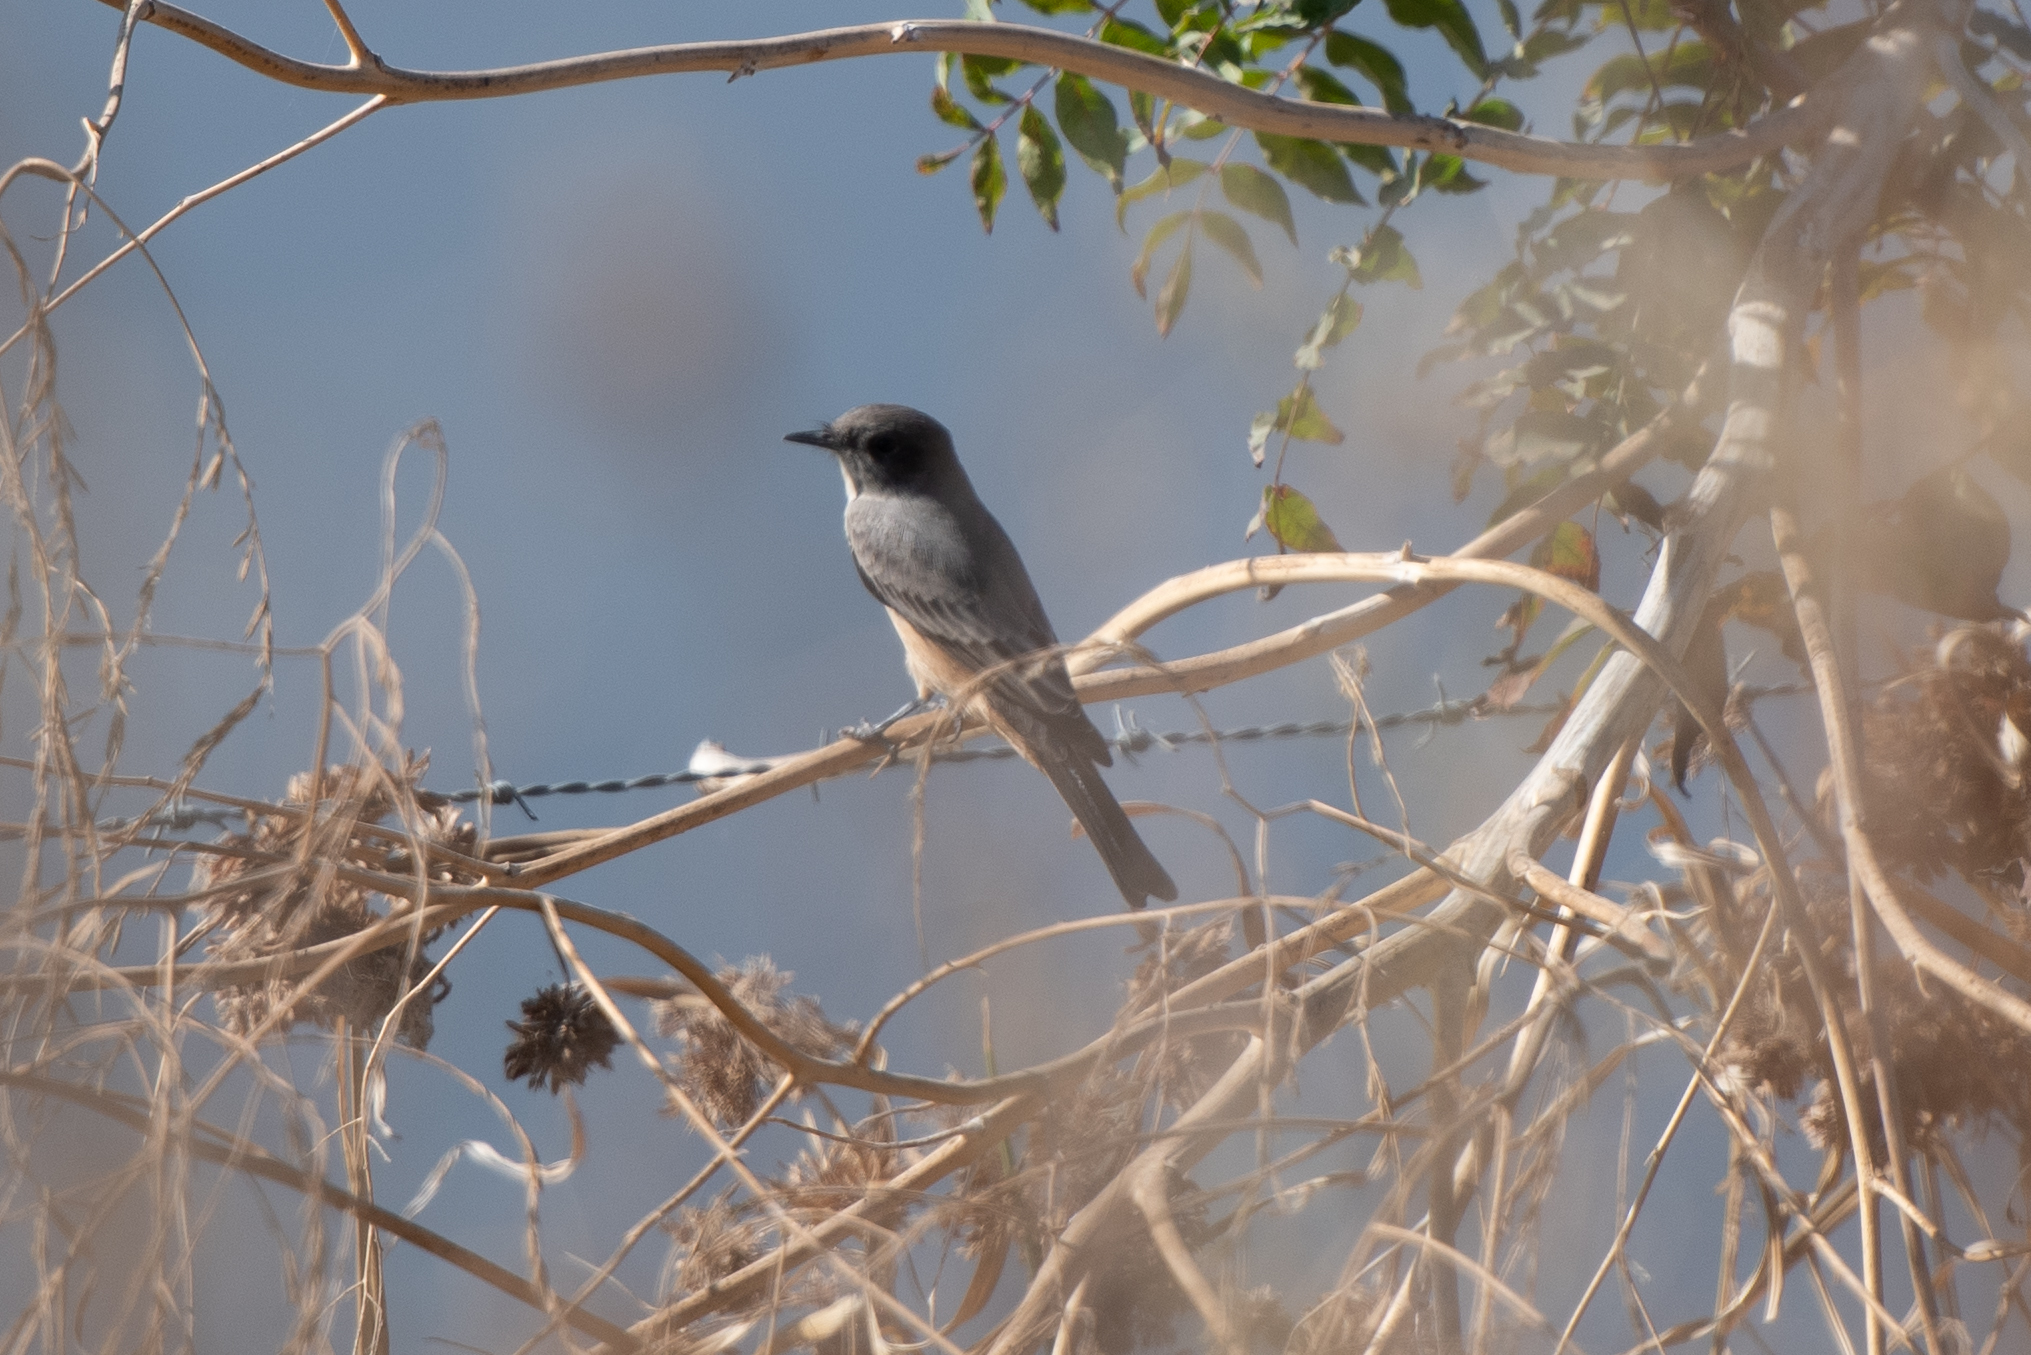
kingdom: Animalia
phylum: Chordata
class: Aves
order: Passeriformes
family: Tyrannidae
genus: Sayornis
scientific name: Sayornis saya
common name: Say's phoebe
